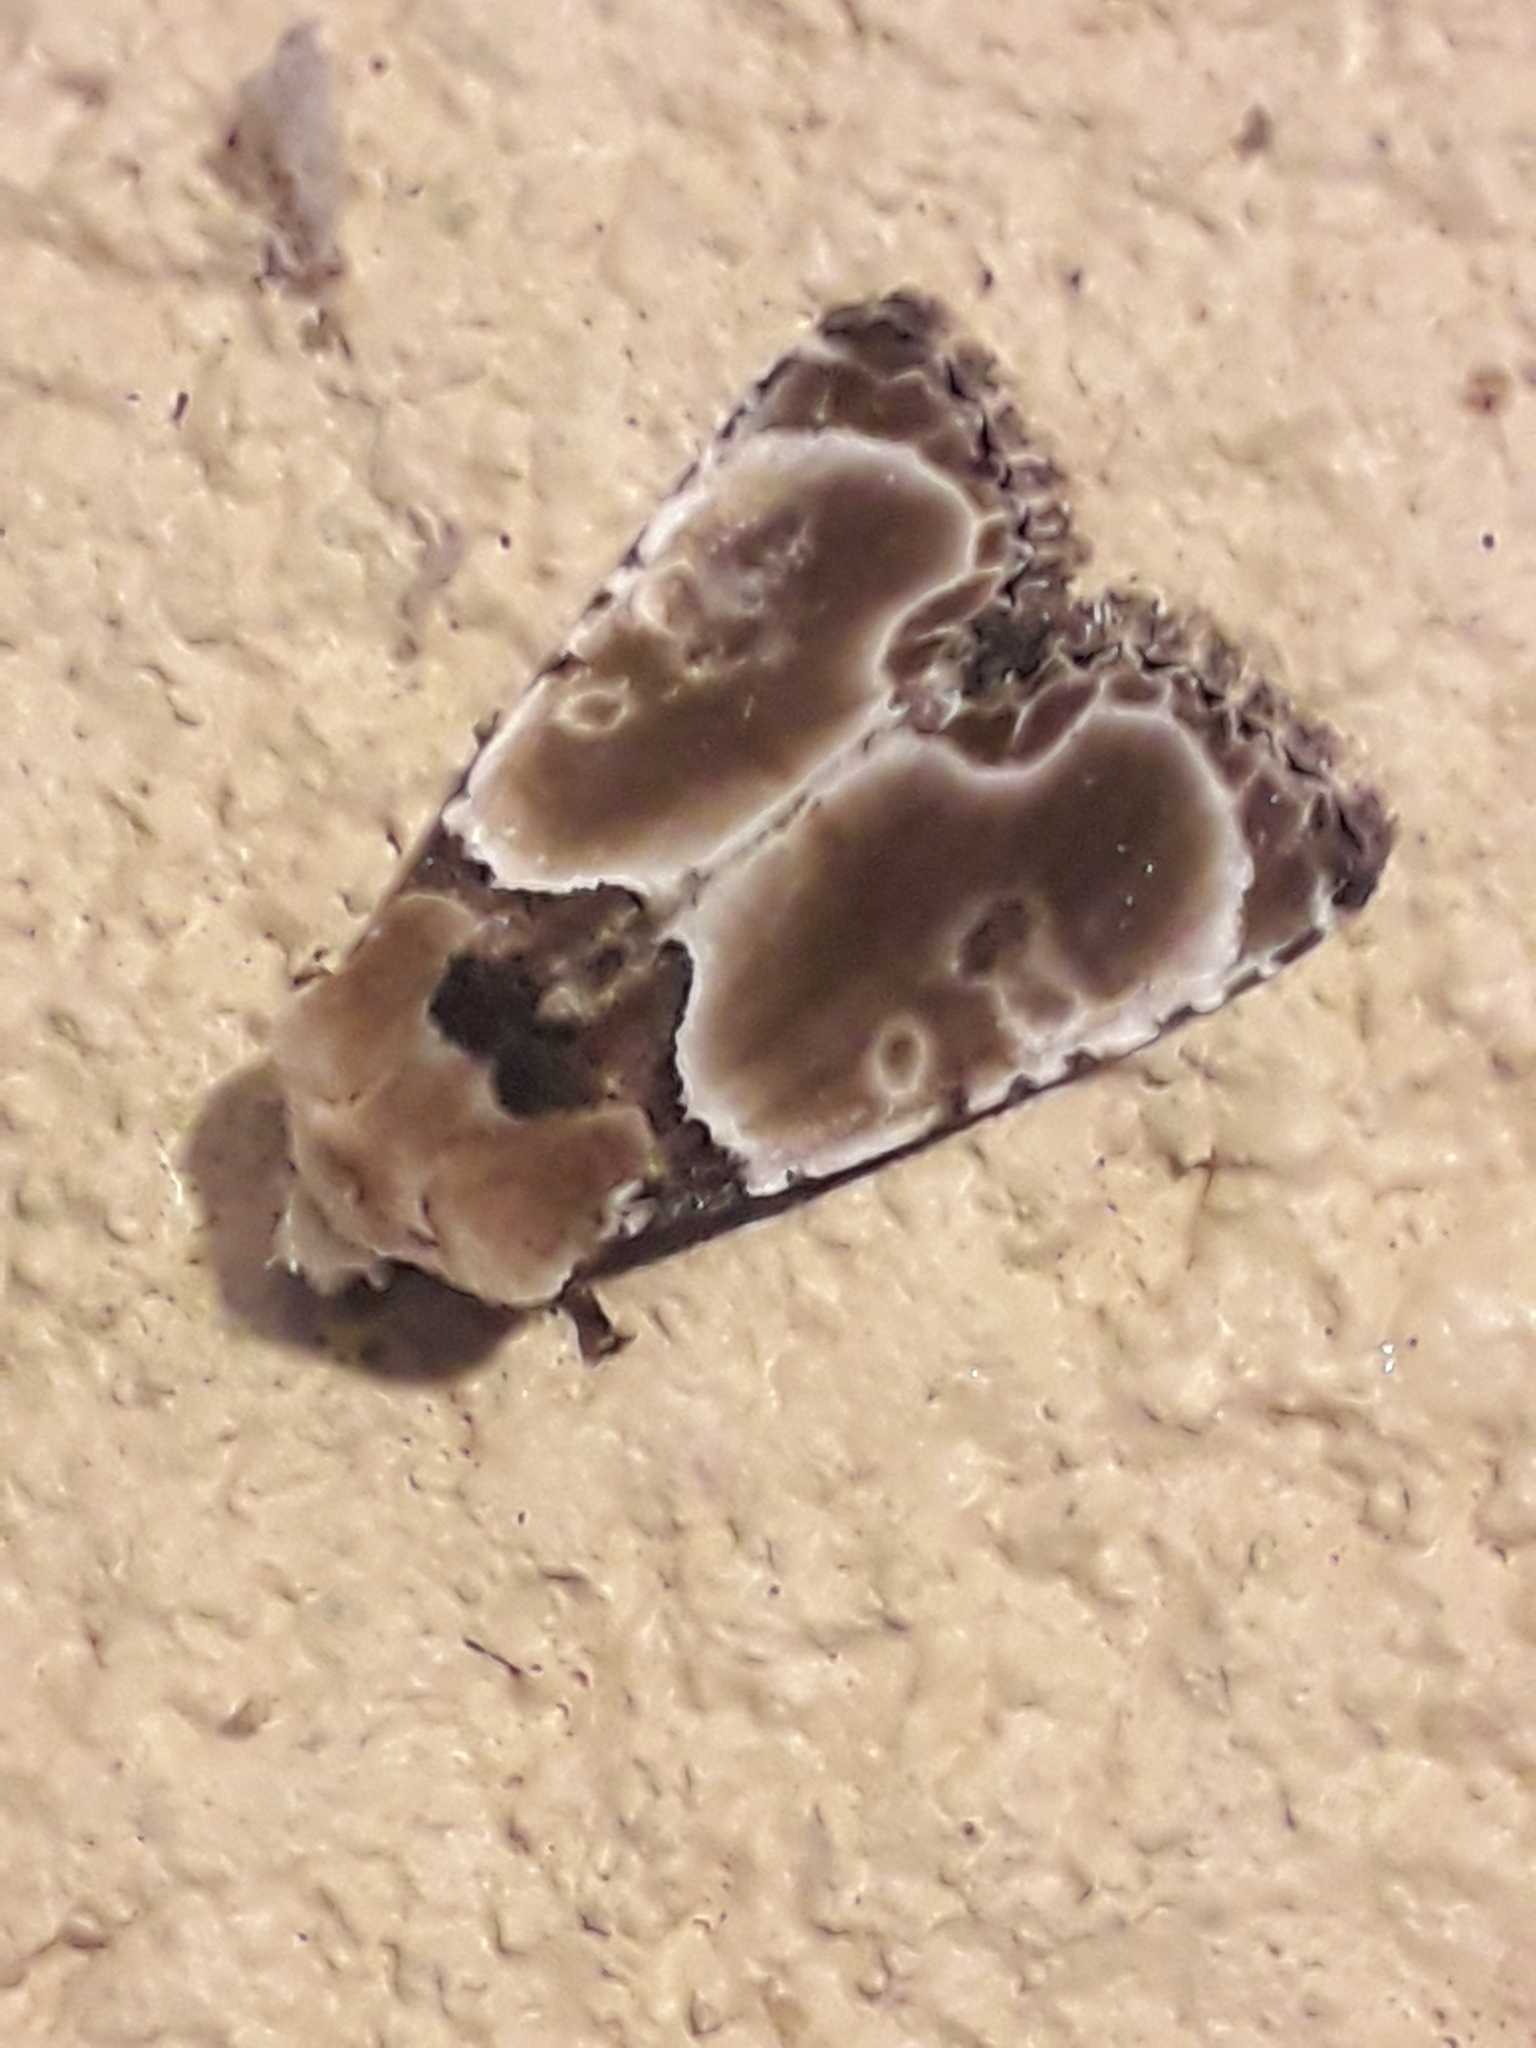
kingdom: Animalia
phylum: Arthropoda
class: Insecta
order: Lepidoptera
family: Noctuidae
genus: Thyatirodes
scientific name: Thyatirodes godalma
